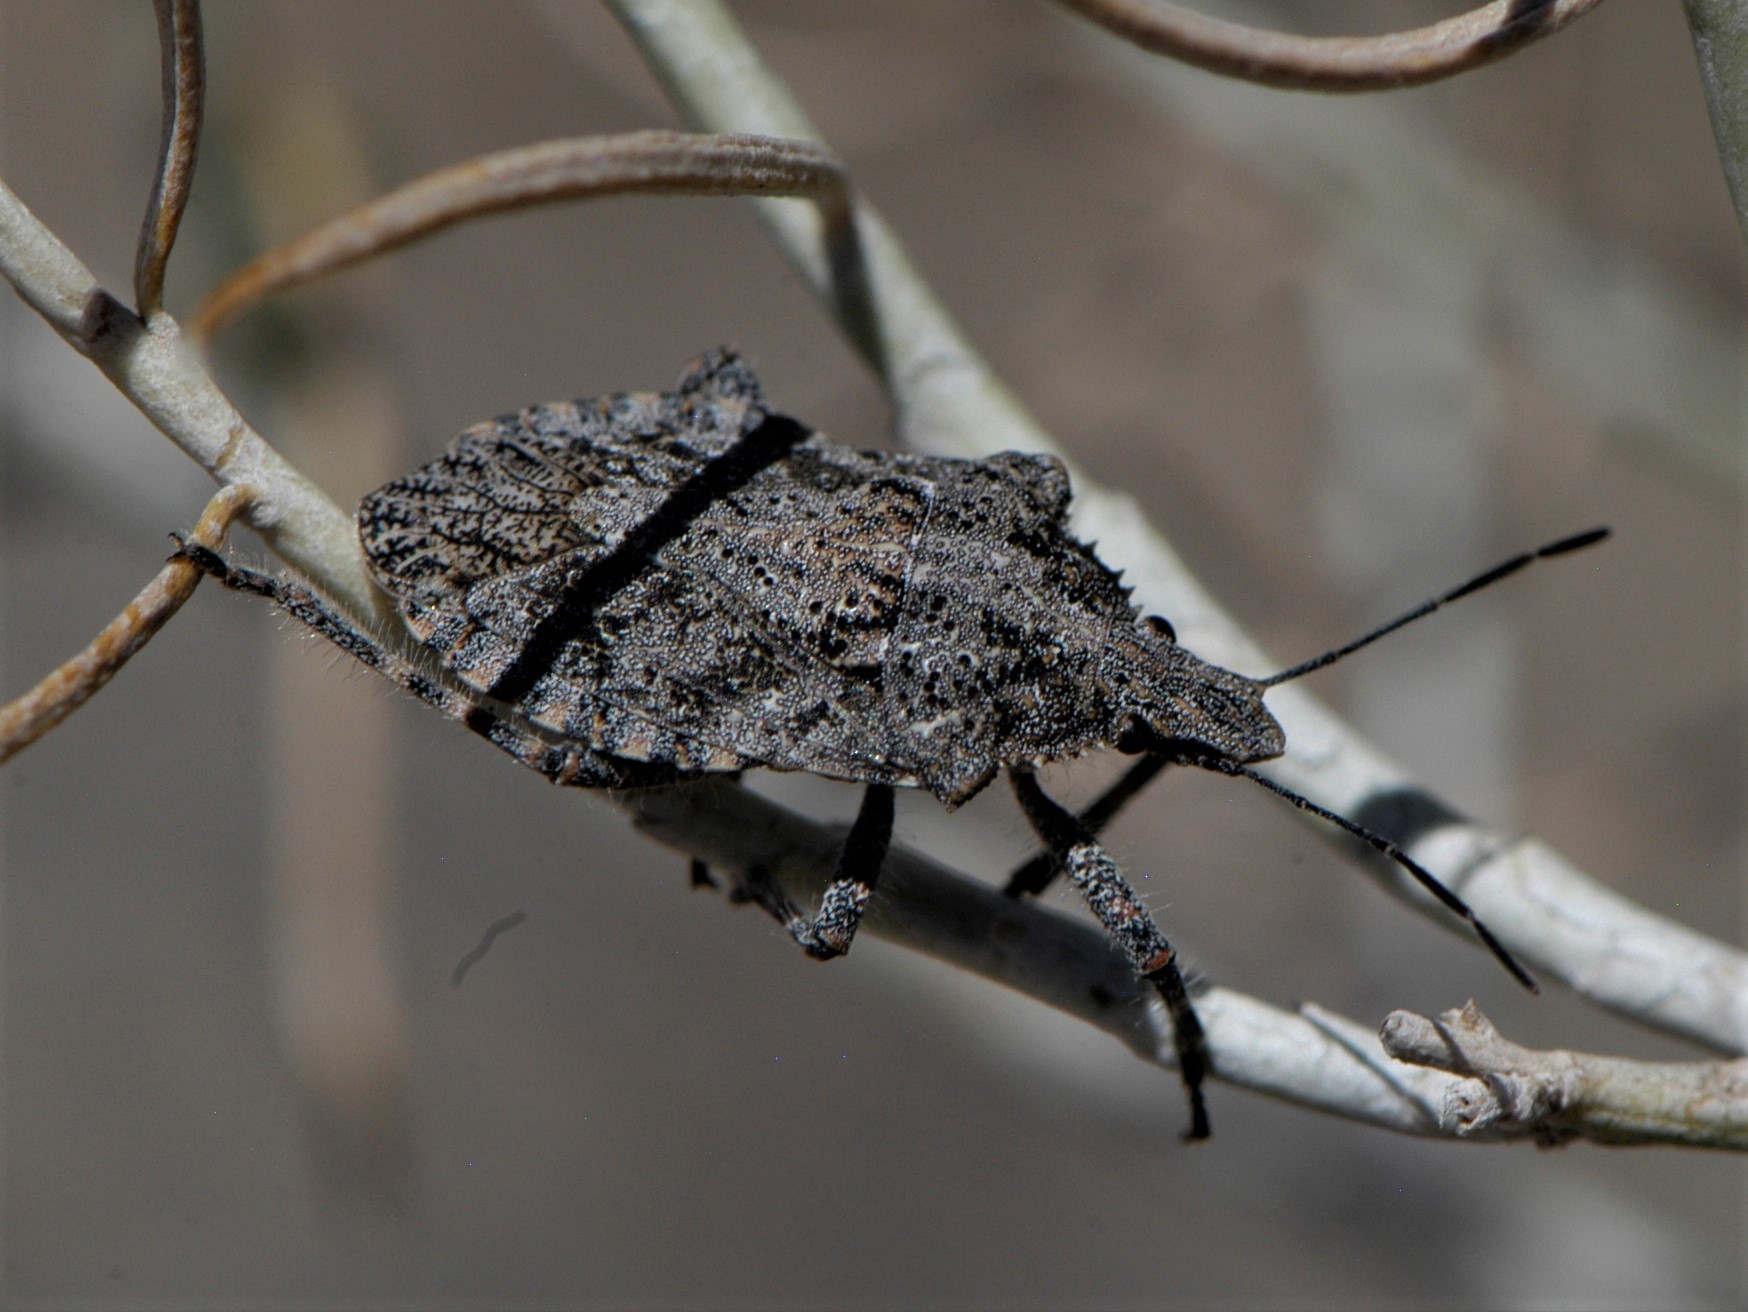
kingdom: Animalia
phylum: Arthropoda
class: Insecta
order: Hemiptera
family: Pentatomidae
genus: Brochymena
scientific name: Brochymena
